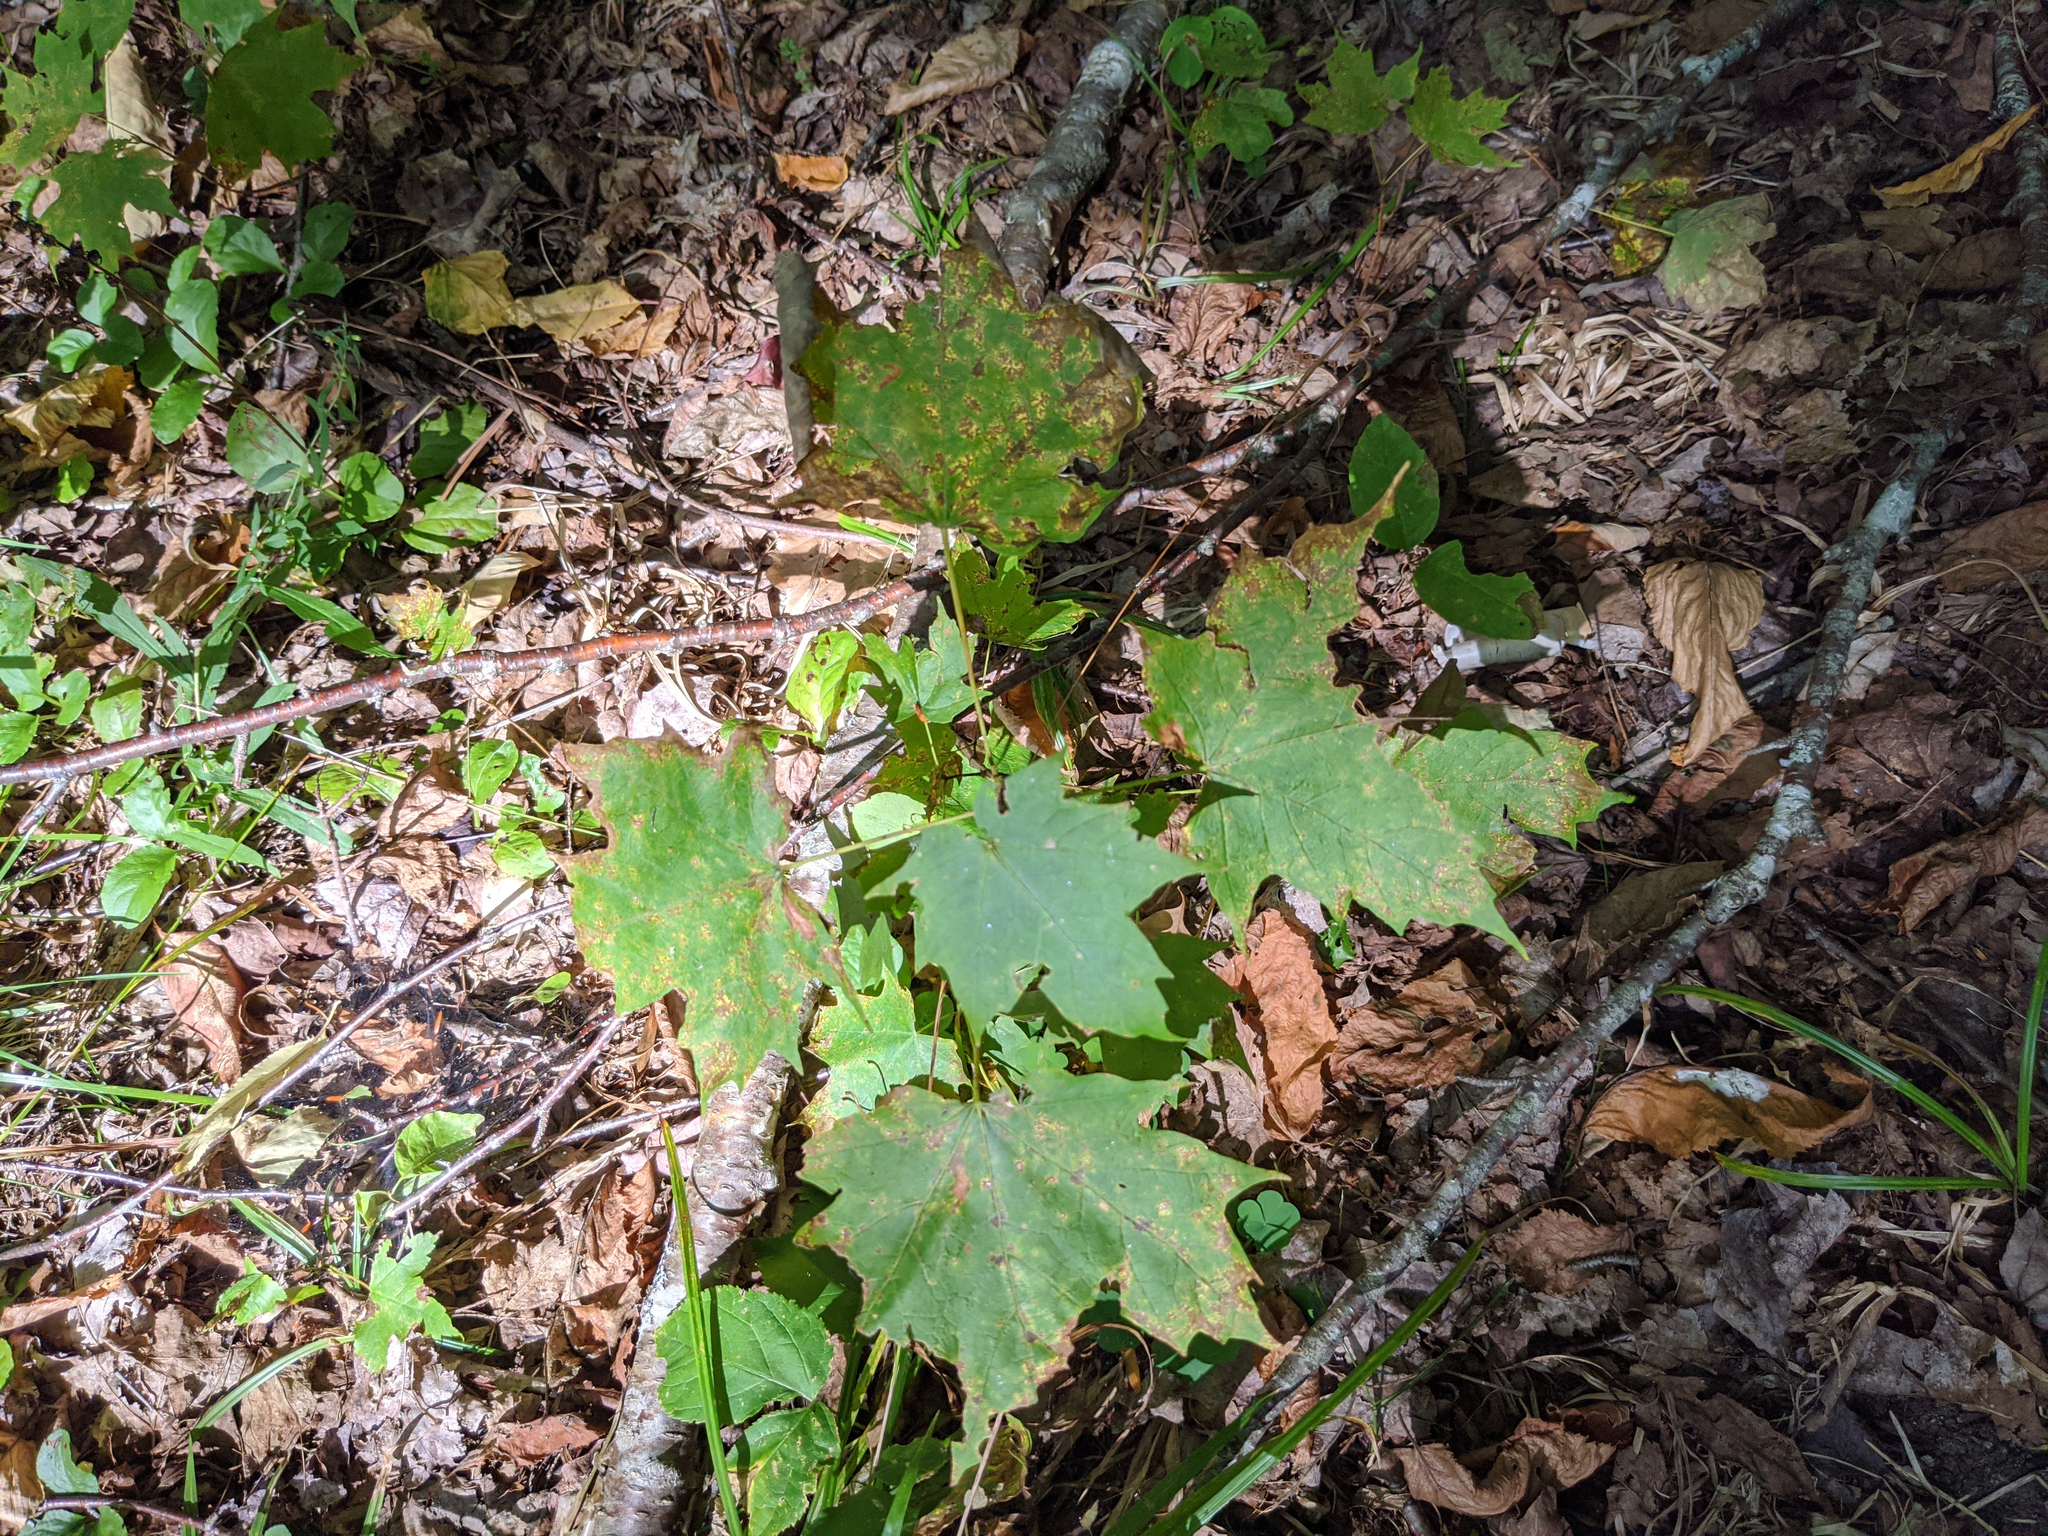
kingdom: Plantae
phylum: Tracheophyta
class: Magnoliopsida
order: Sapindales
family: Sapindaceae
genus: Acer
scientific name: Acer saccharum
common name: Sugar maple
